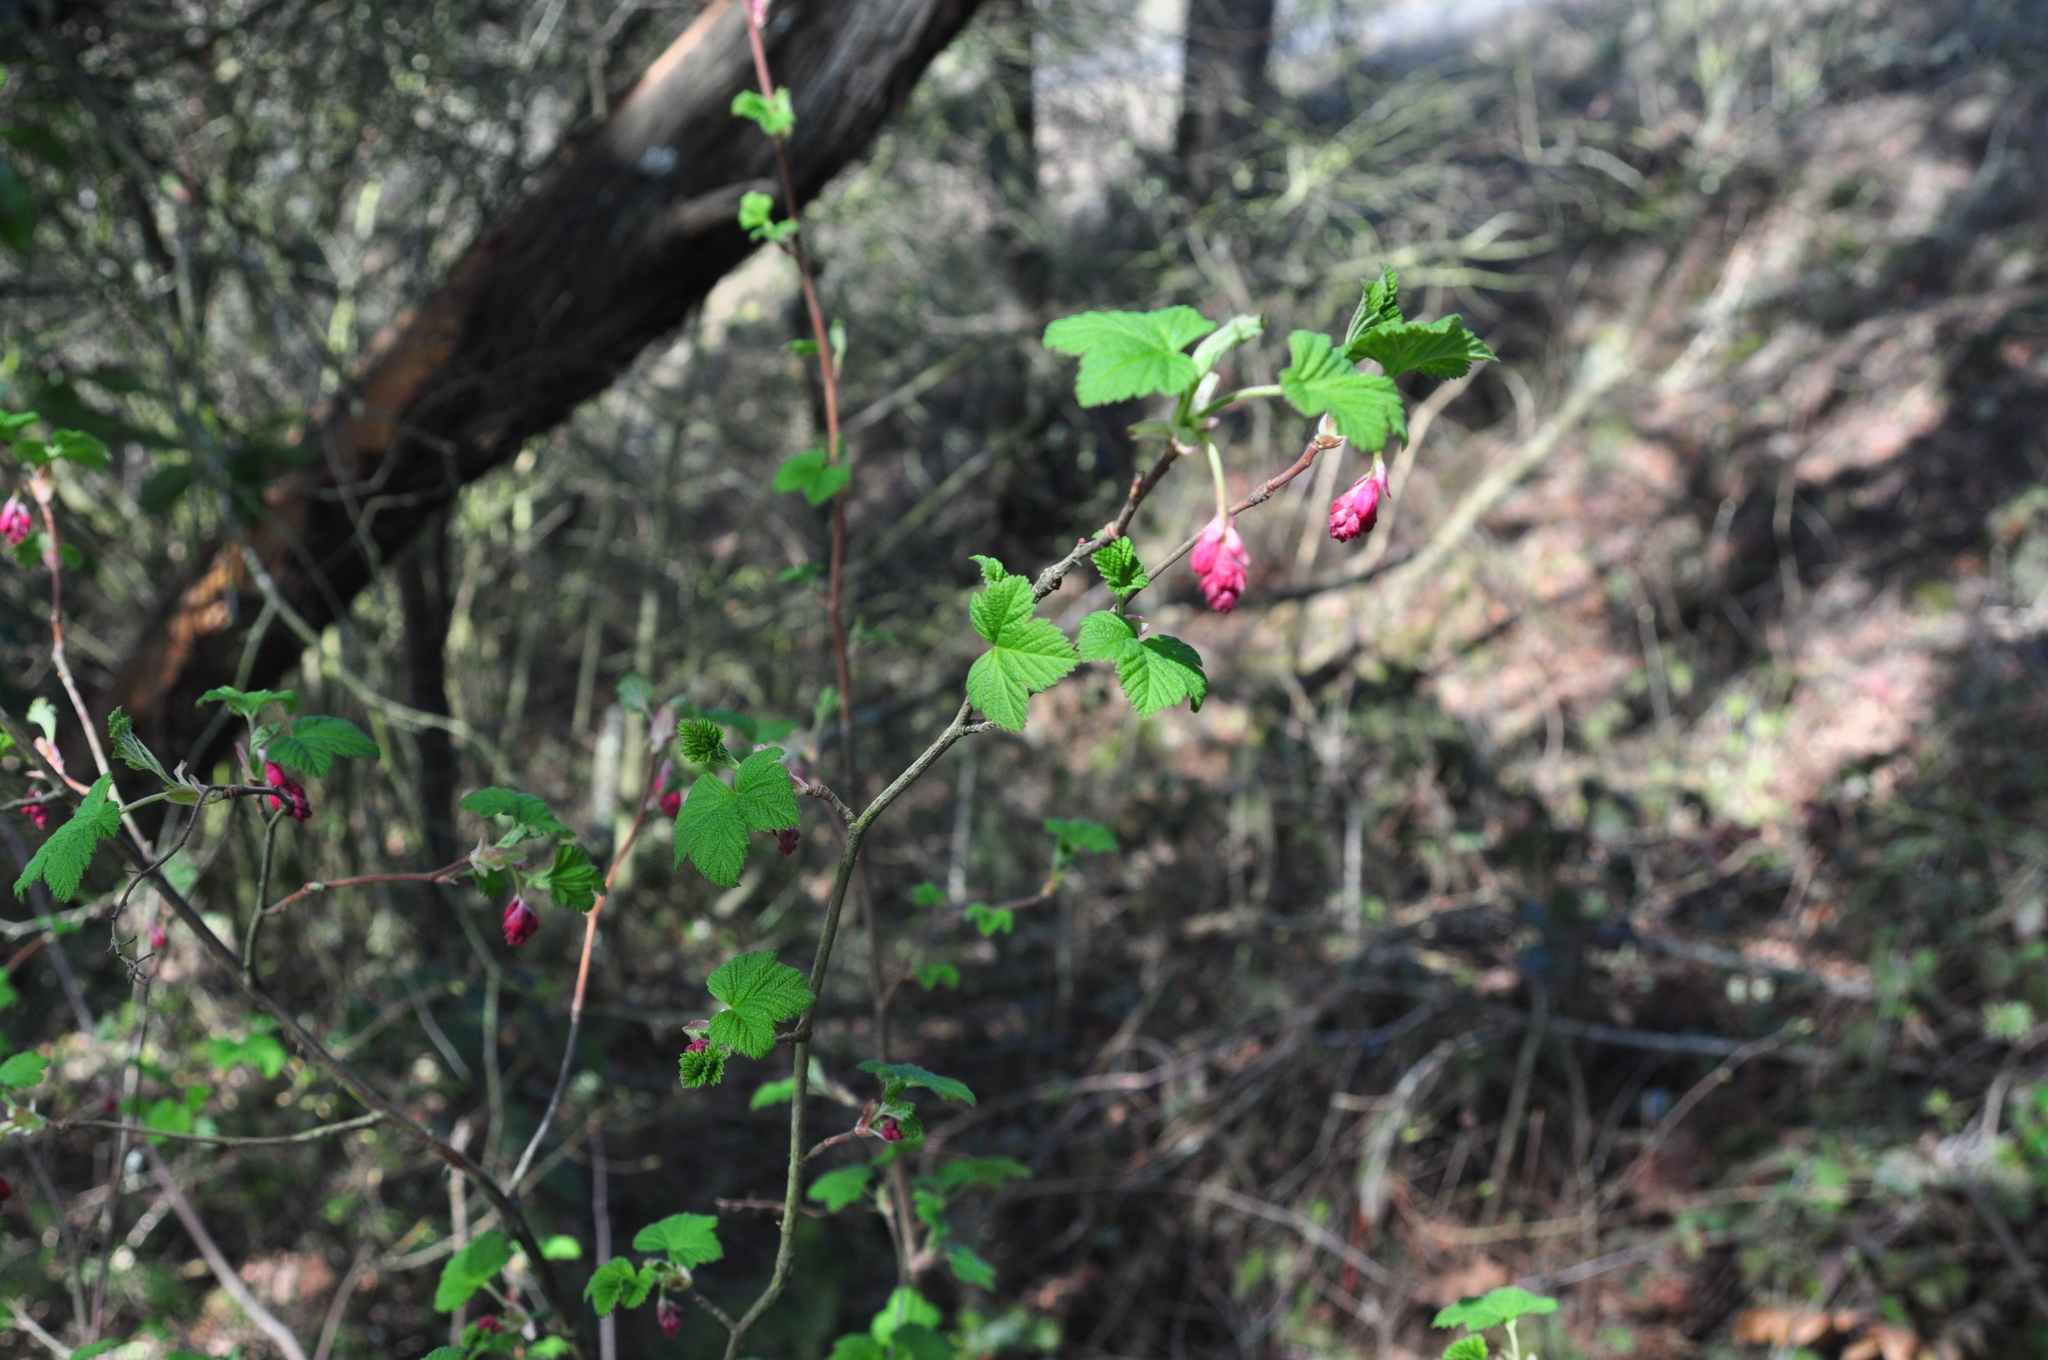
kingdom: Plantae
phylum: Tracheophyta
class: Magnoliopsida
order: Saxifragales
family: Grossulariaceae
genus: Ribes
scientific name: Ribes sanguineum
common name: Flowering currant
